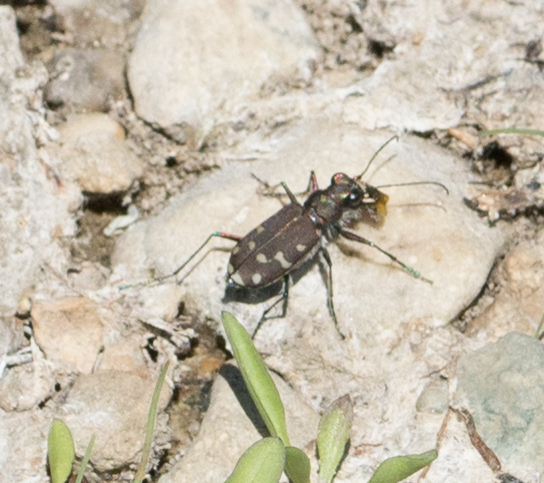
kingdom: Animalia
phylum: Arthropoda
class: Insecta
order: Coleoptera
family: Carabidae
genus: Cicindela
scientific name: Cicindela oregona
